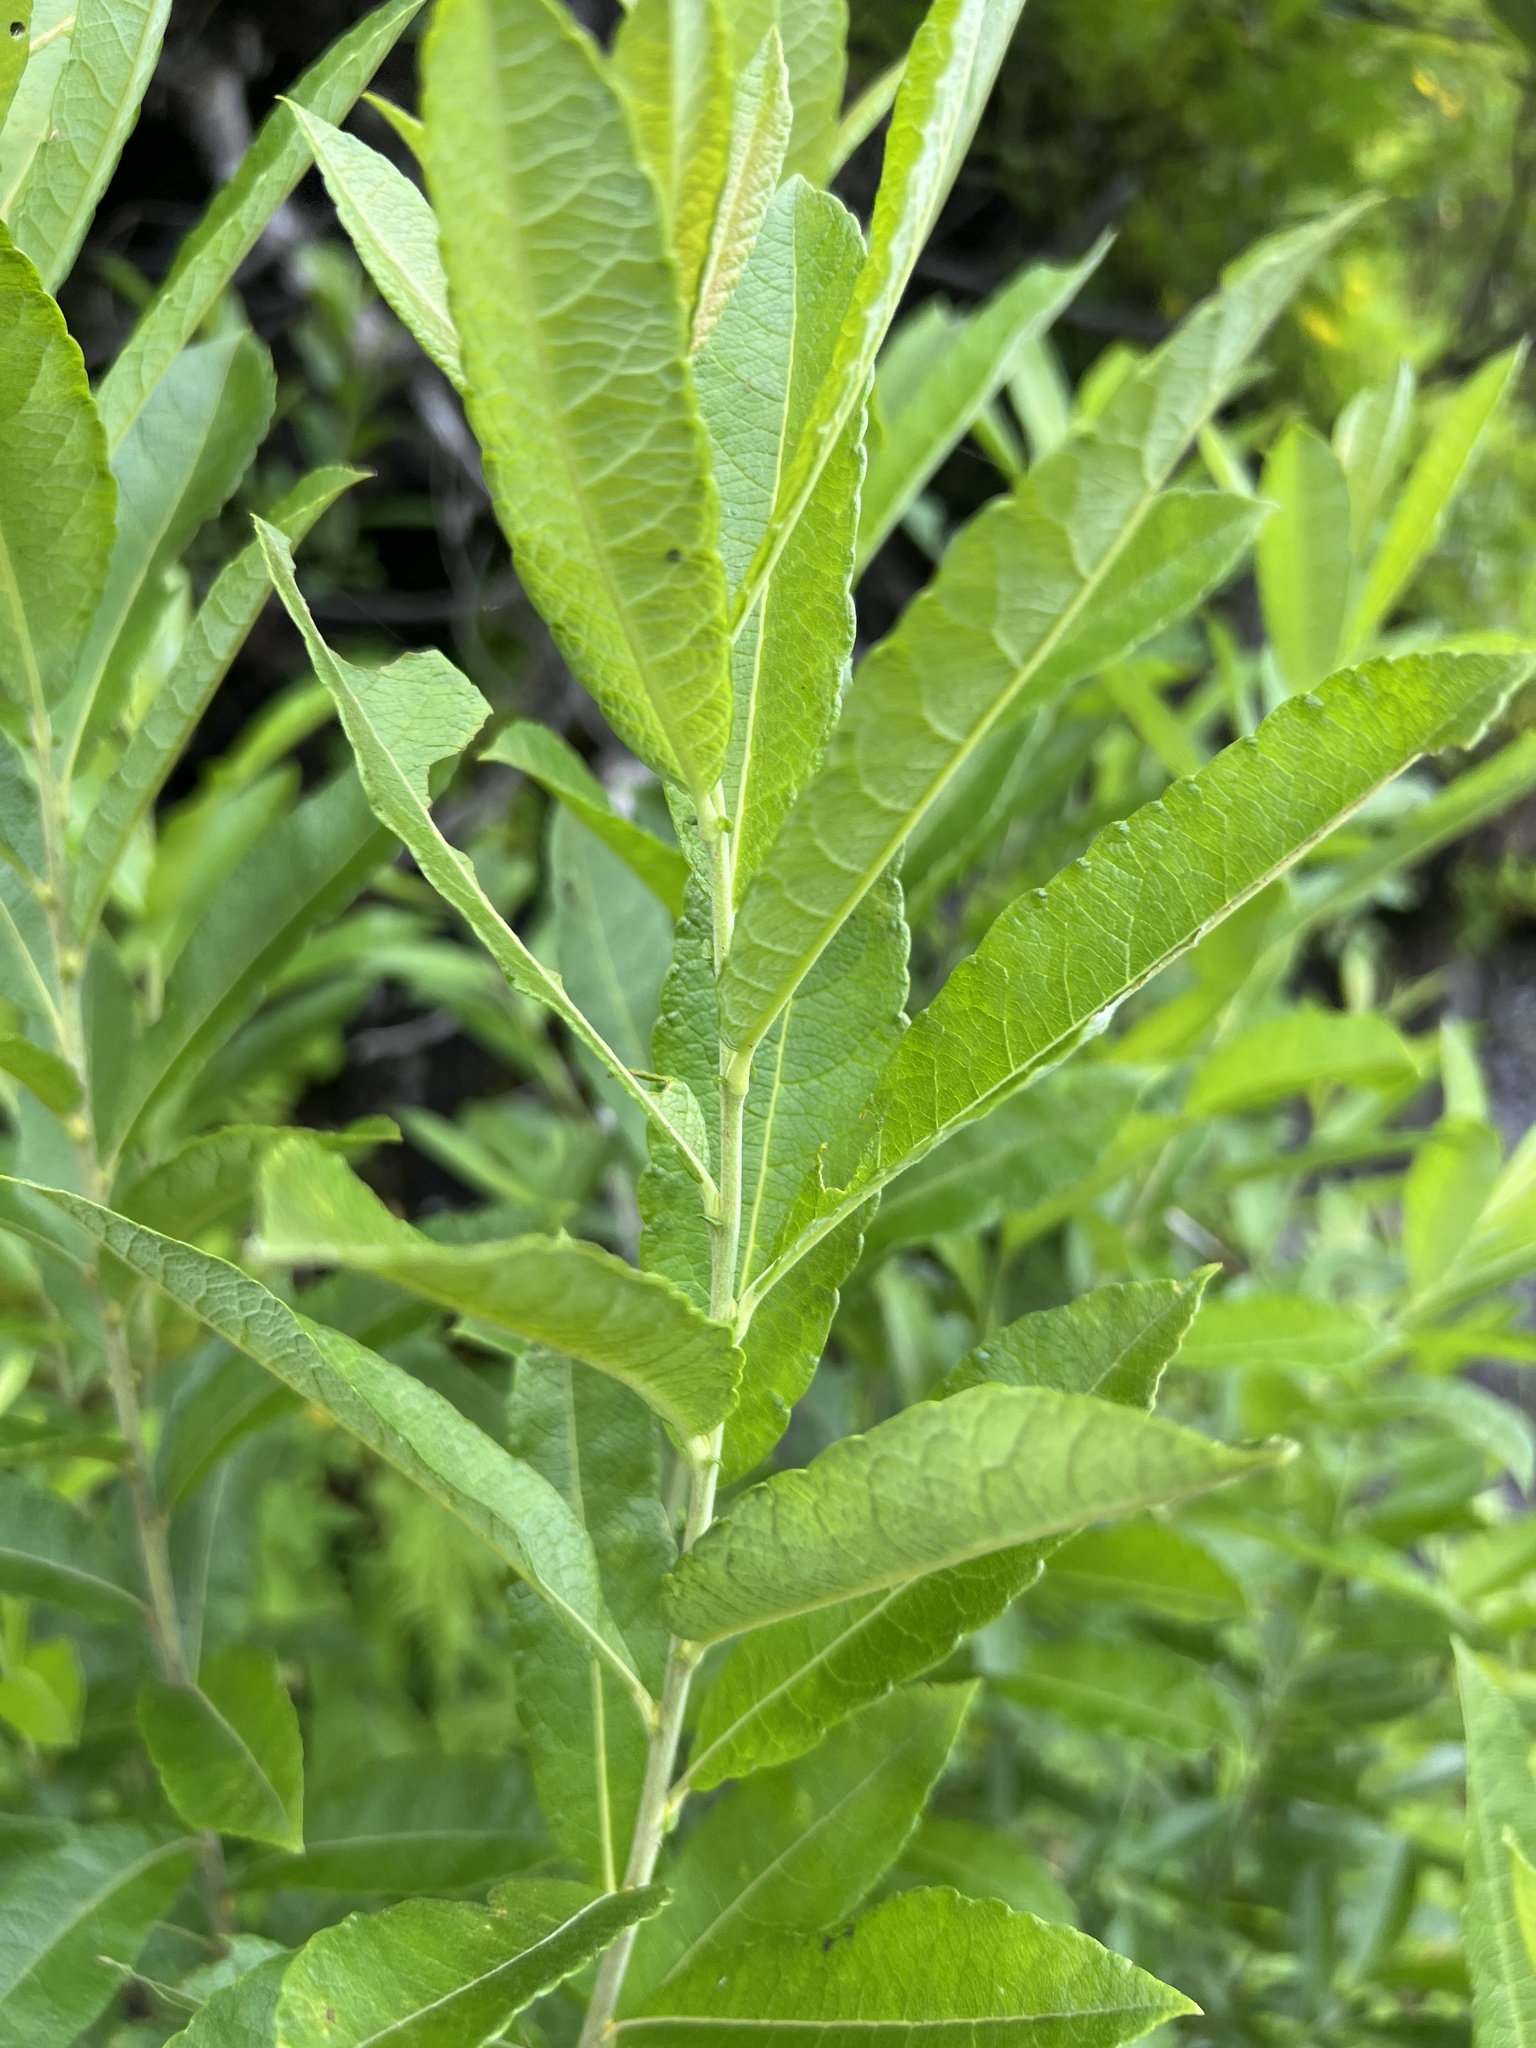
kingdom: Plantae
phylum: Tracheophyta
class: Magnoliopsida
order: Malpighiales
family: Salicaceae
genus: Salix
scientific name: Salix humilis
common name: Prairie willow
